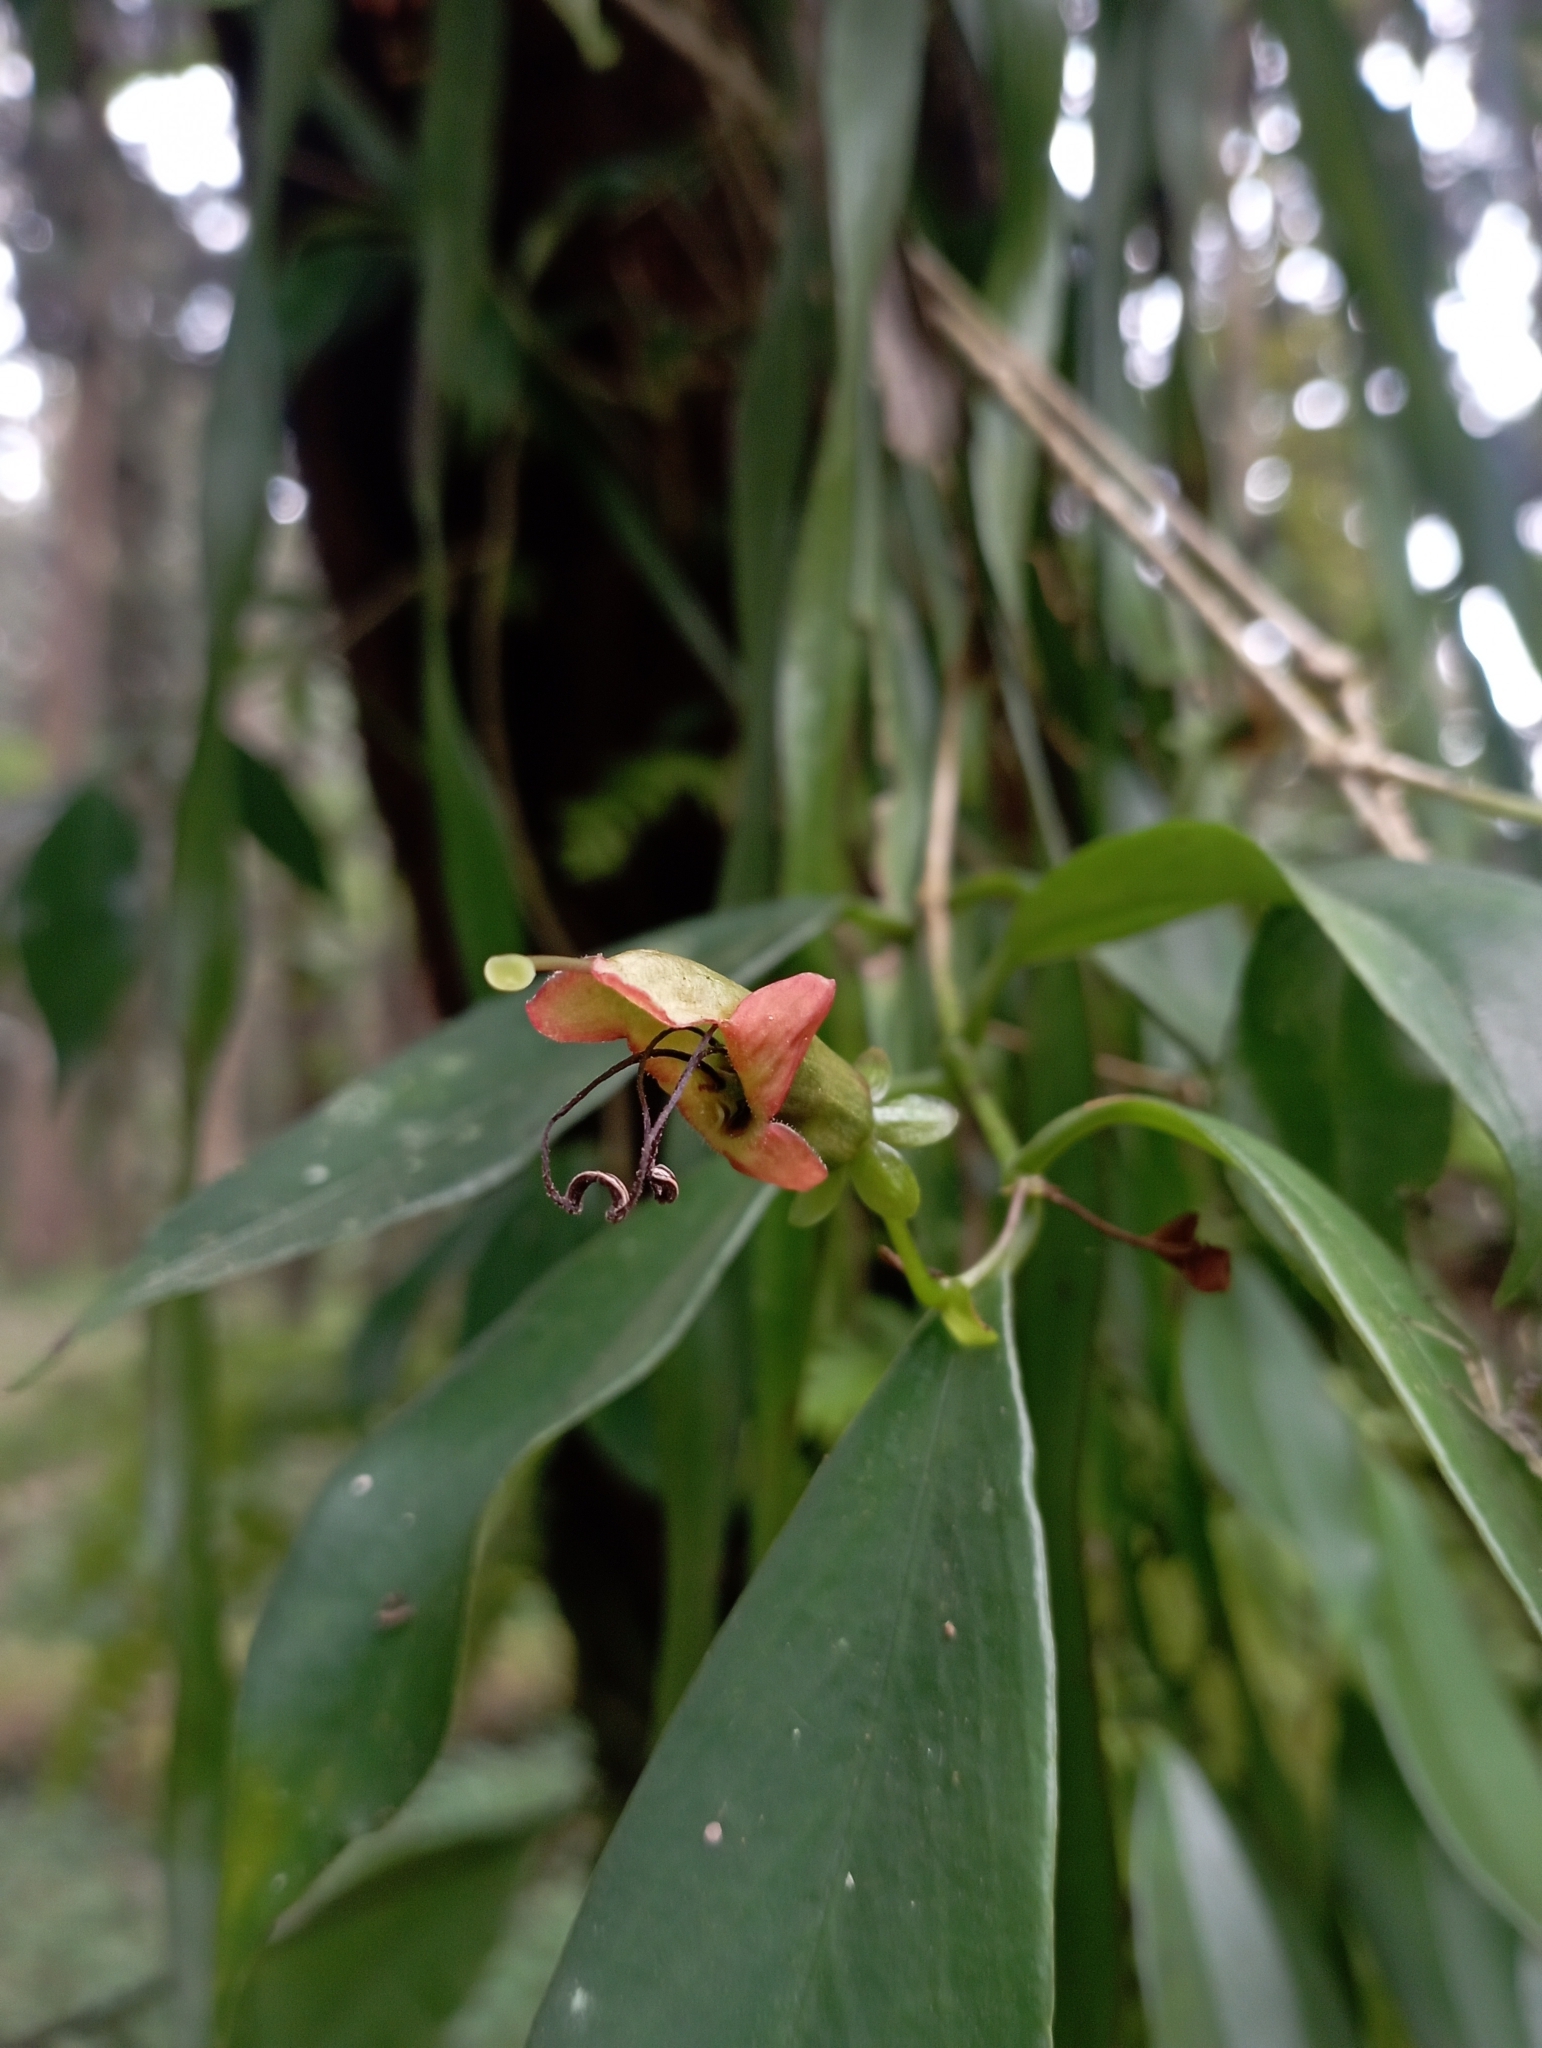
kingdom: Plantae
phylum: Tracheophyta
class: Magnoliopsida
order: Lamiales
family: Gesneriaceae
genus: Aeschynanthus
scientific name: Aeschynanthus acuminatus
